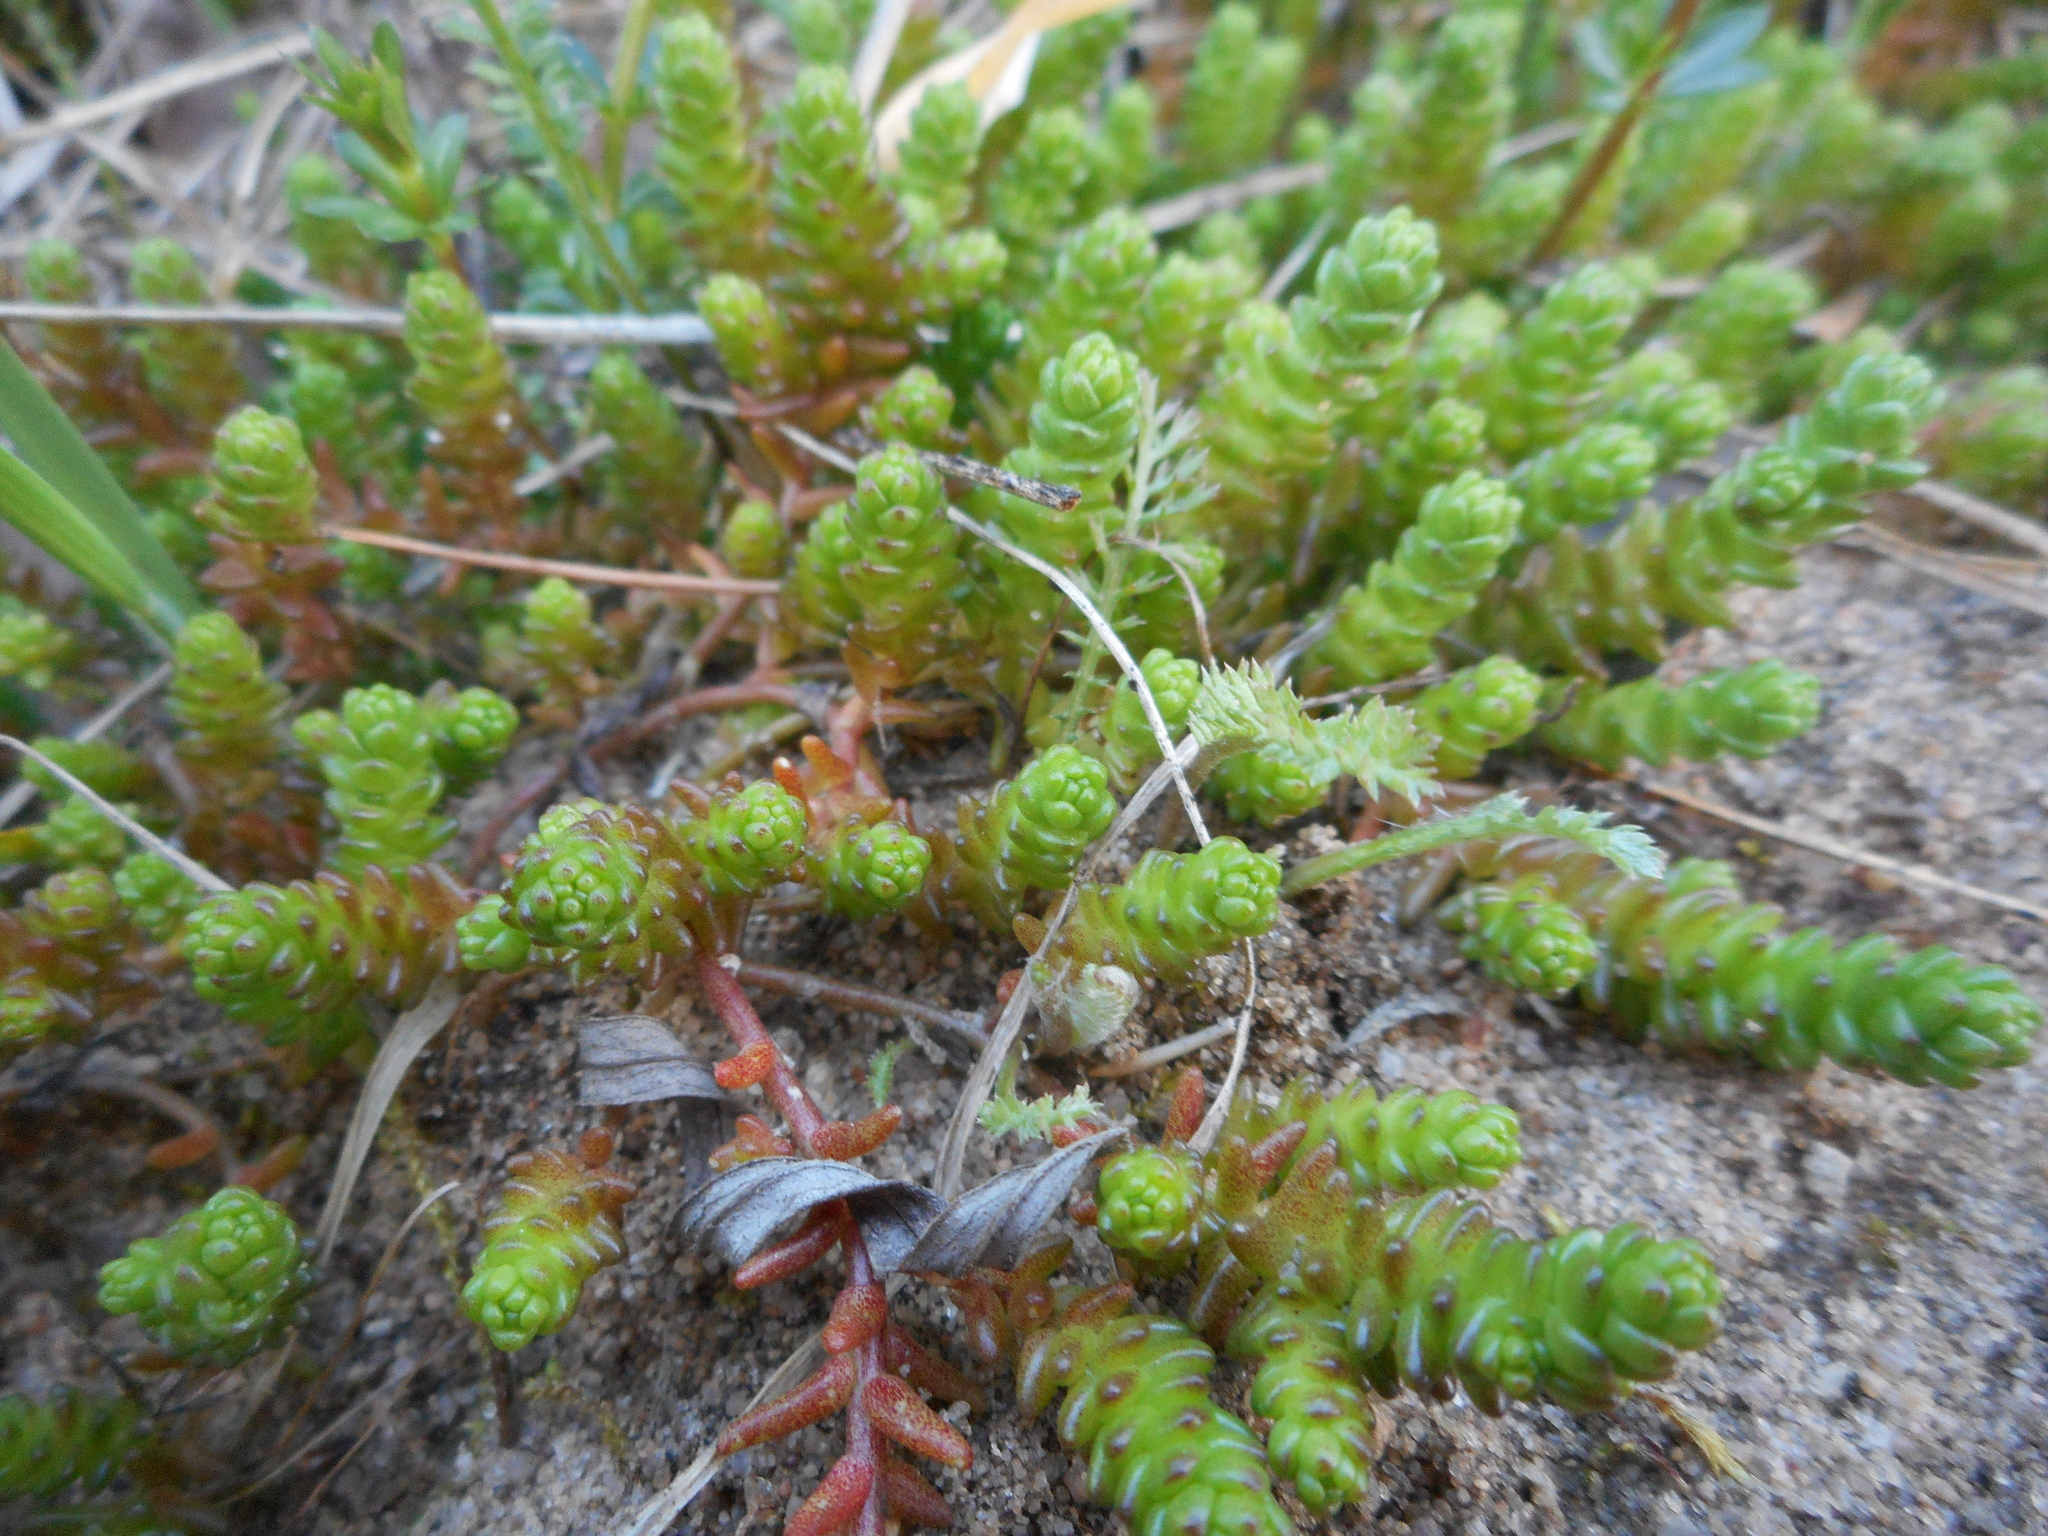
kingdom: Plantae
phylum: Tracheophyta
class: Magnoliopsida
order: Saxifragales
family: Crassulaceae
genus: Sedum
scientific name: Sedum acre
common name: Biting stonecrop
